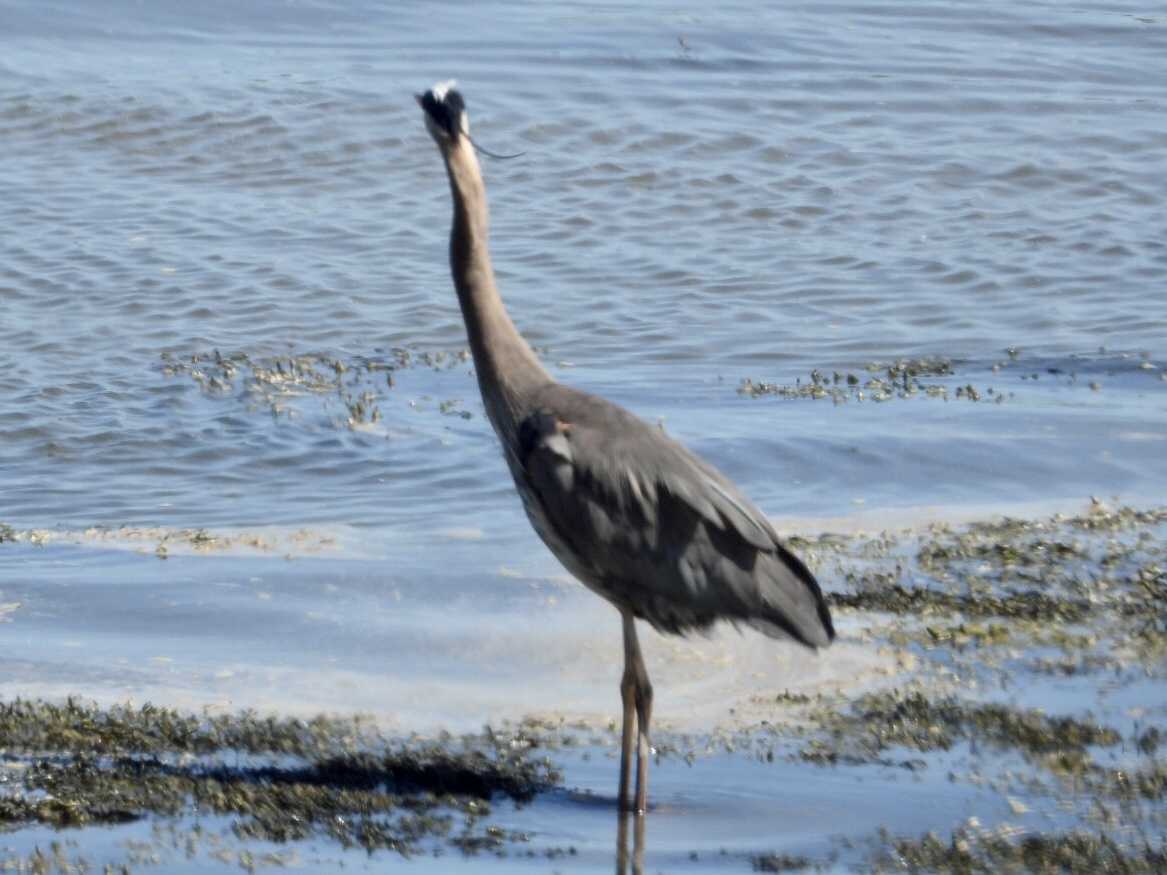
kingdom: Animalia
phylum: Chordata
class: Aves
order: Pelecaniformes
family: Ardeidae
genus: Ardea
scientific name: Ardea herodias
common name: Great blue heron
